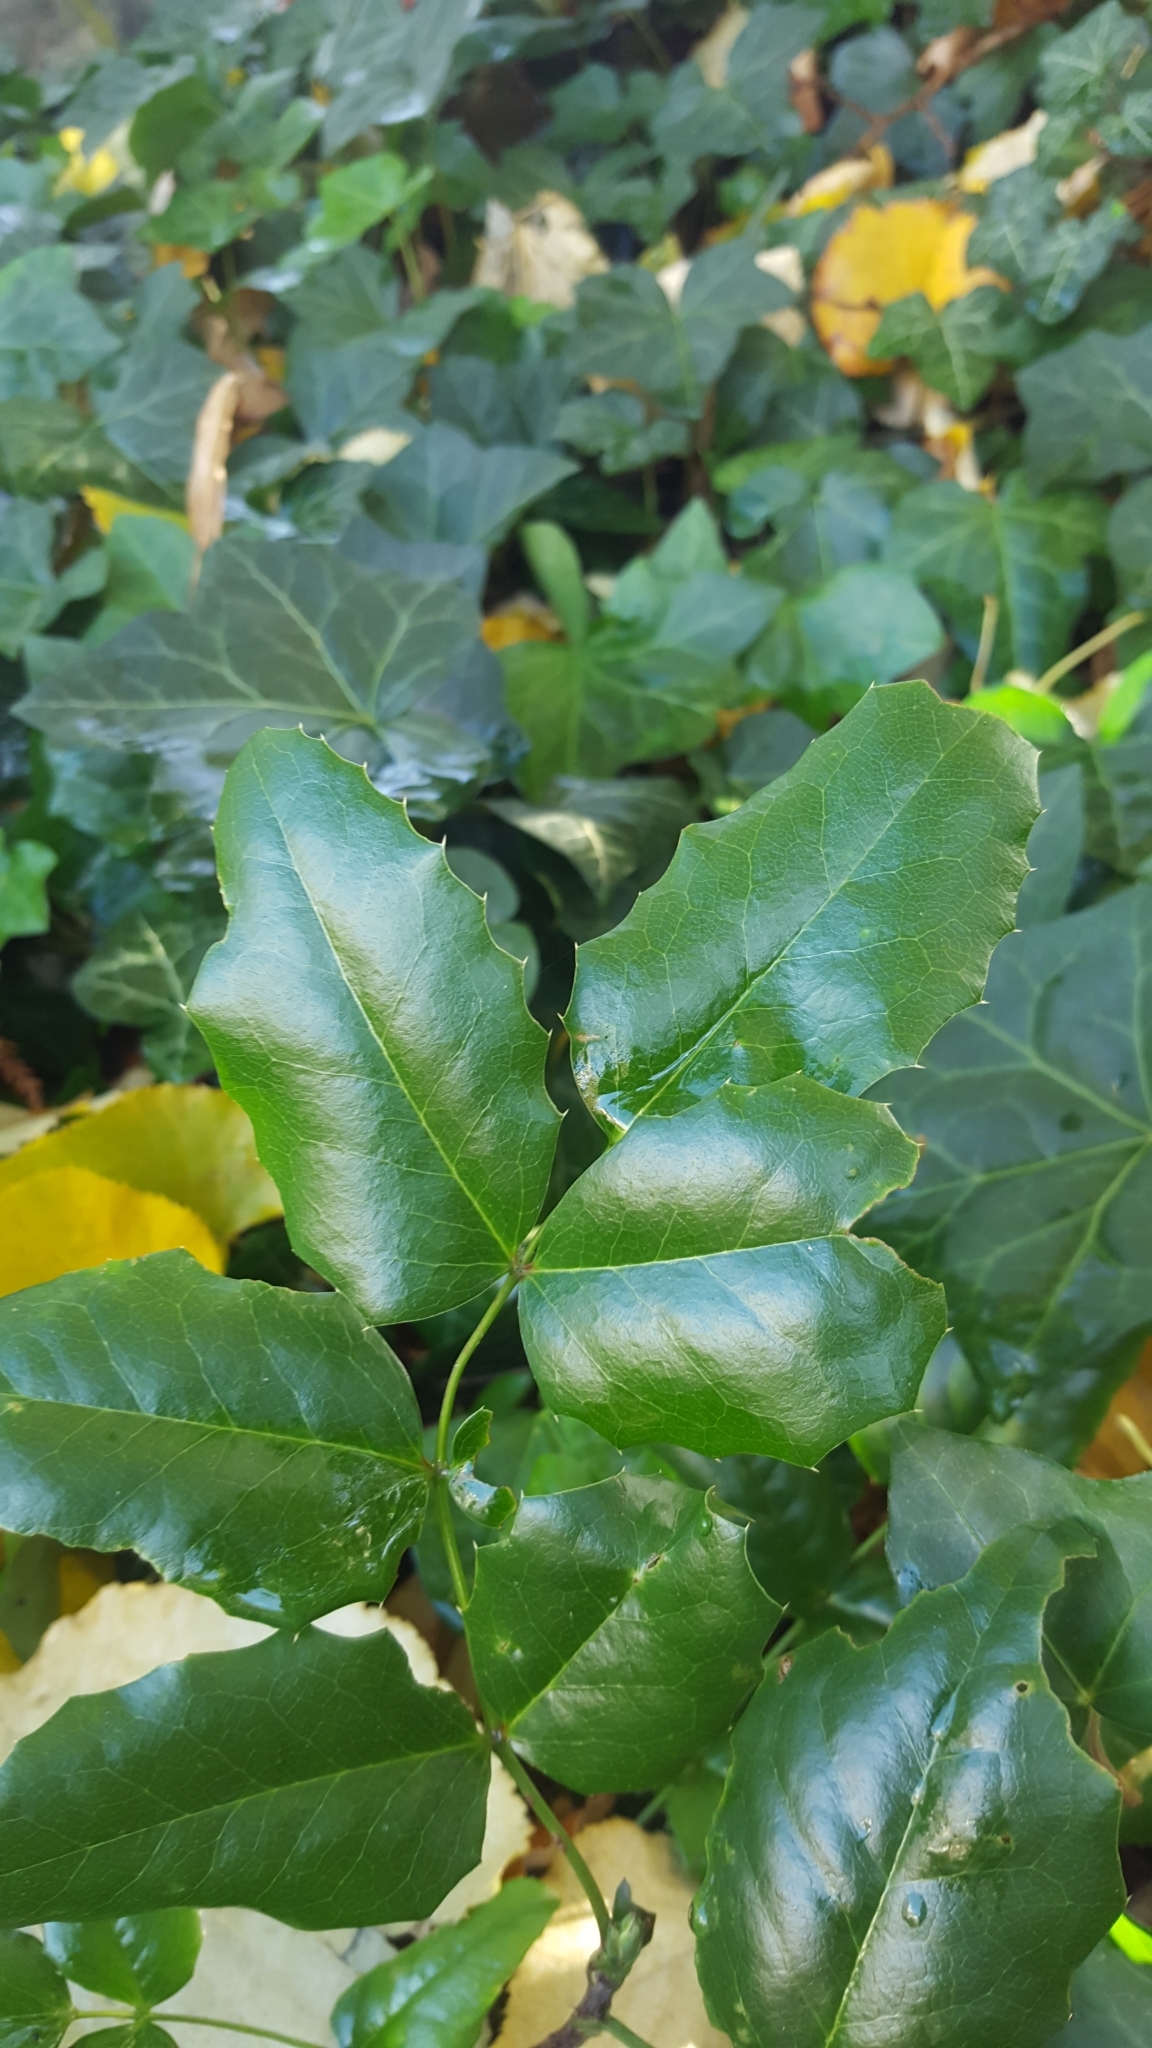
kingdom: Plantae
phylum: Tracheophyta
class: Magnoliopsida
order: Ranunculales
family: Berberidaceae
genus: Mahonia
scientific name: Mahonia aquifolium
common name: Oregon-grape
